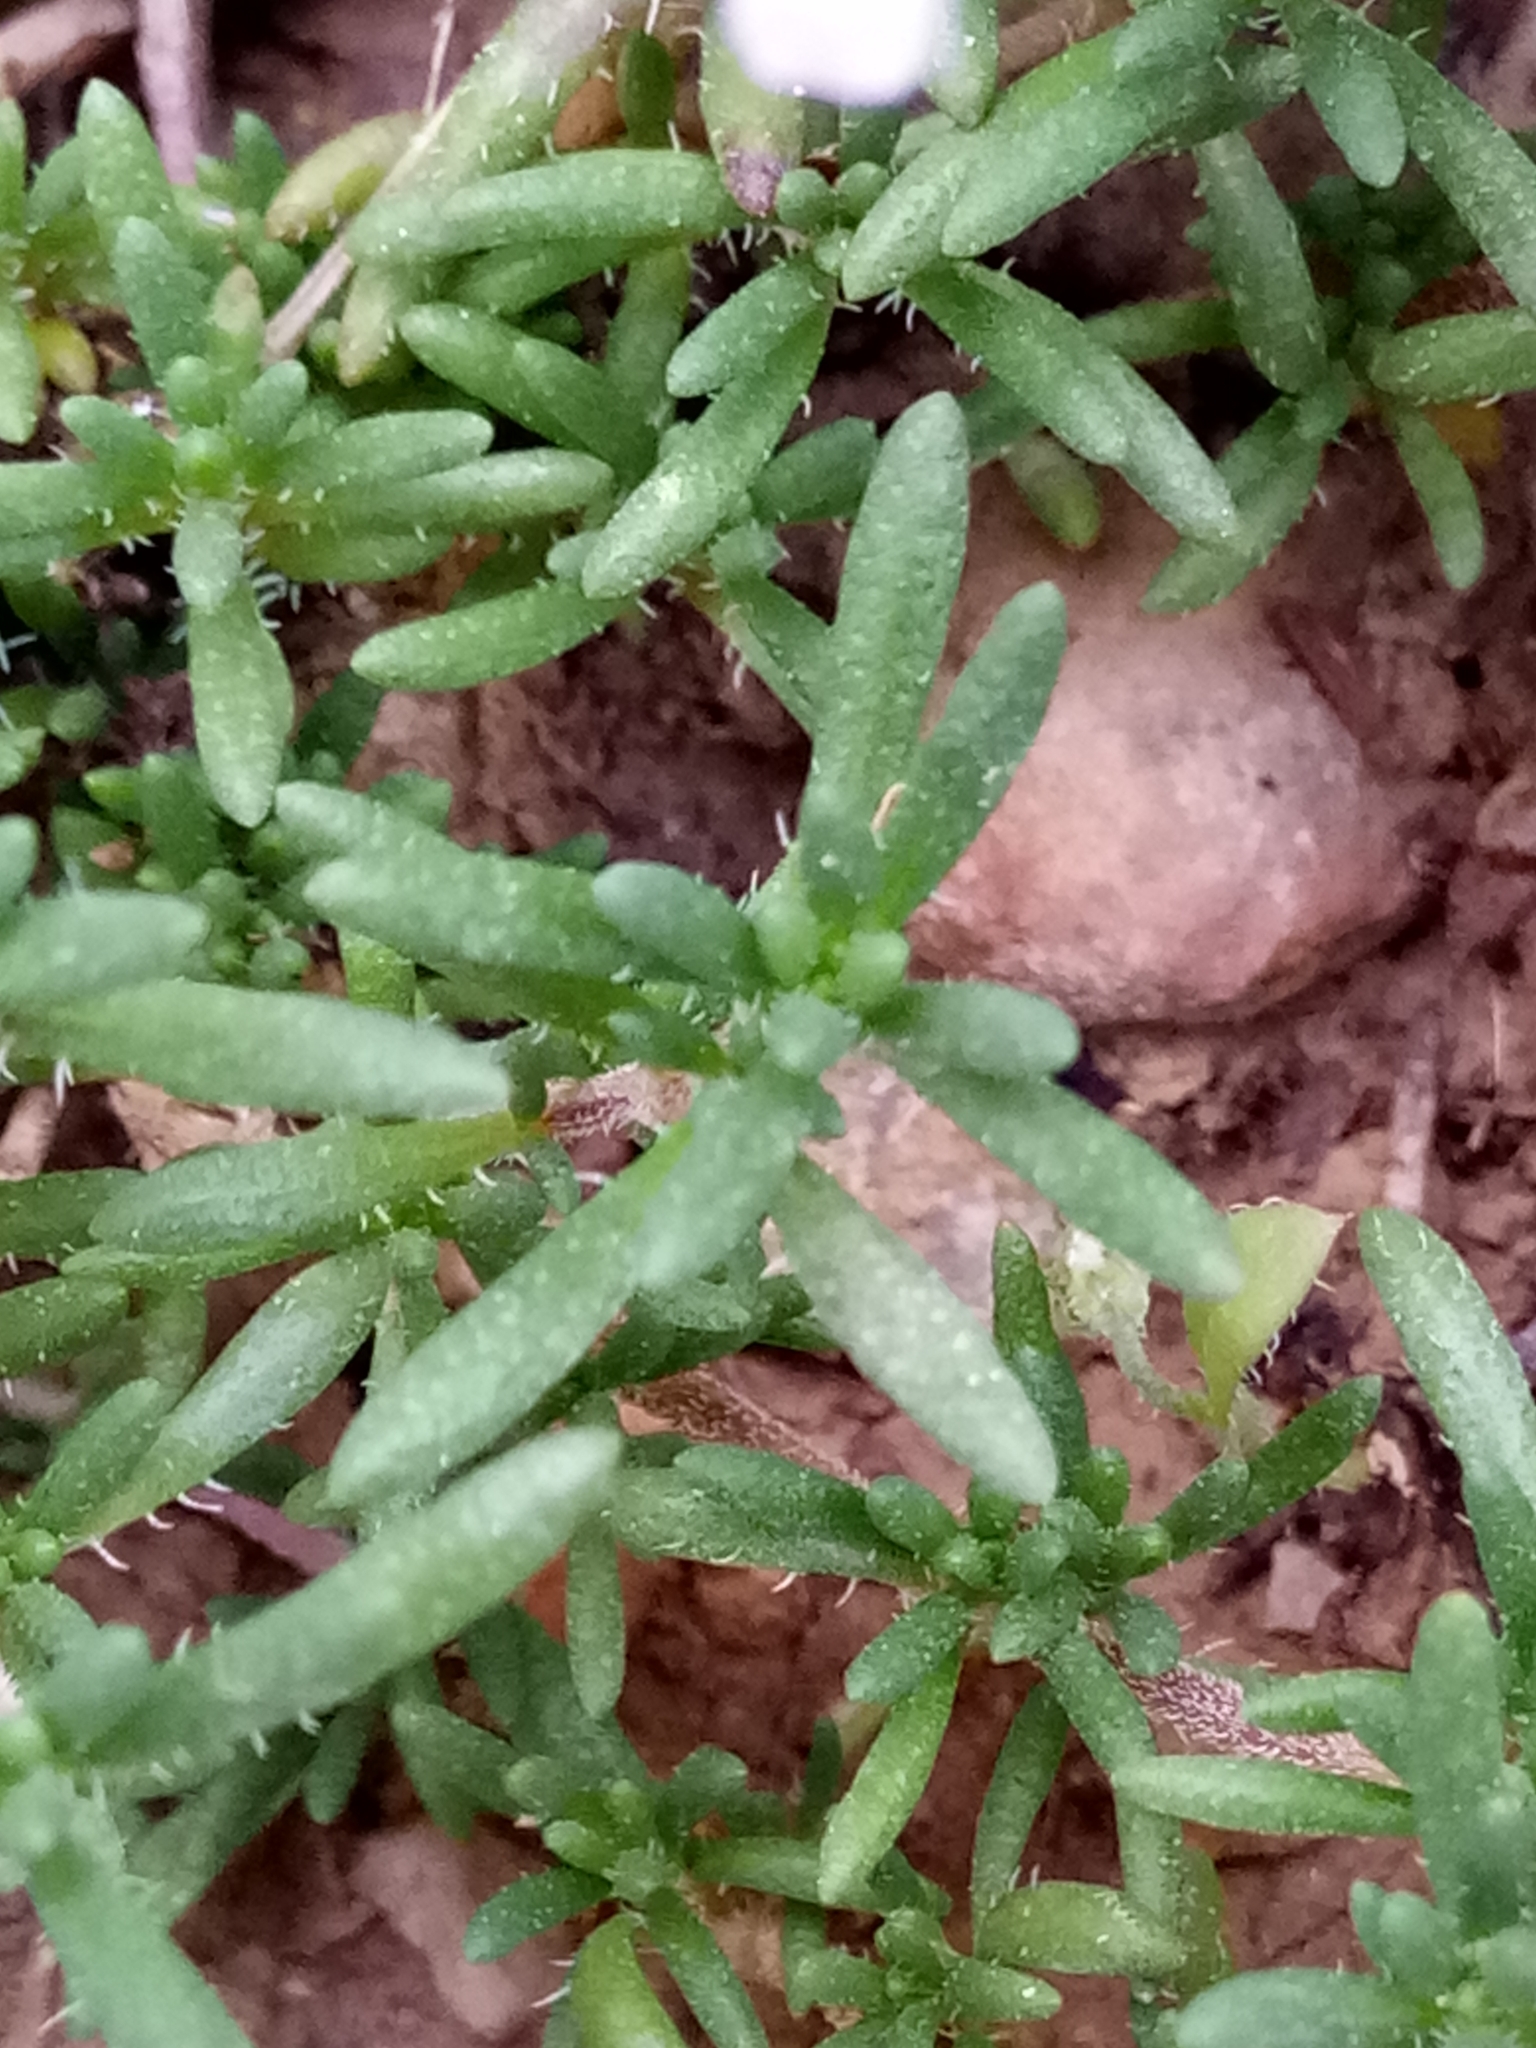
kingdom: Plantae
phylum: Tracheophyta
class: Magnoliopsida
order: Lamiales
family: Lamiaceae
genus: Thymus
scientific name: Thymus willdenowii
